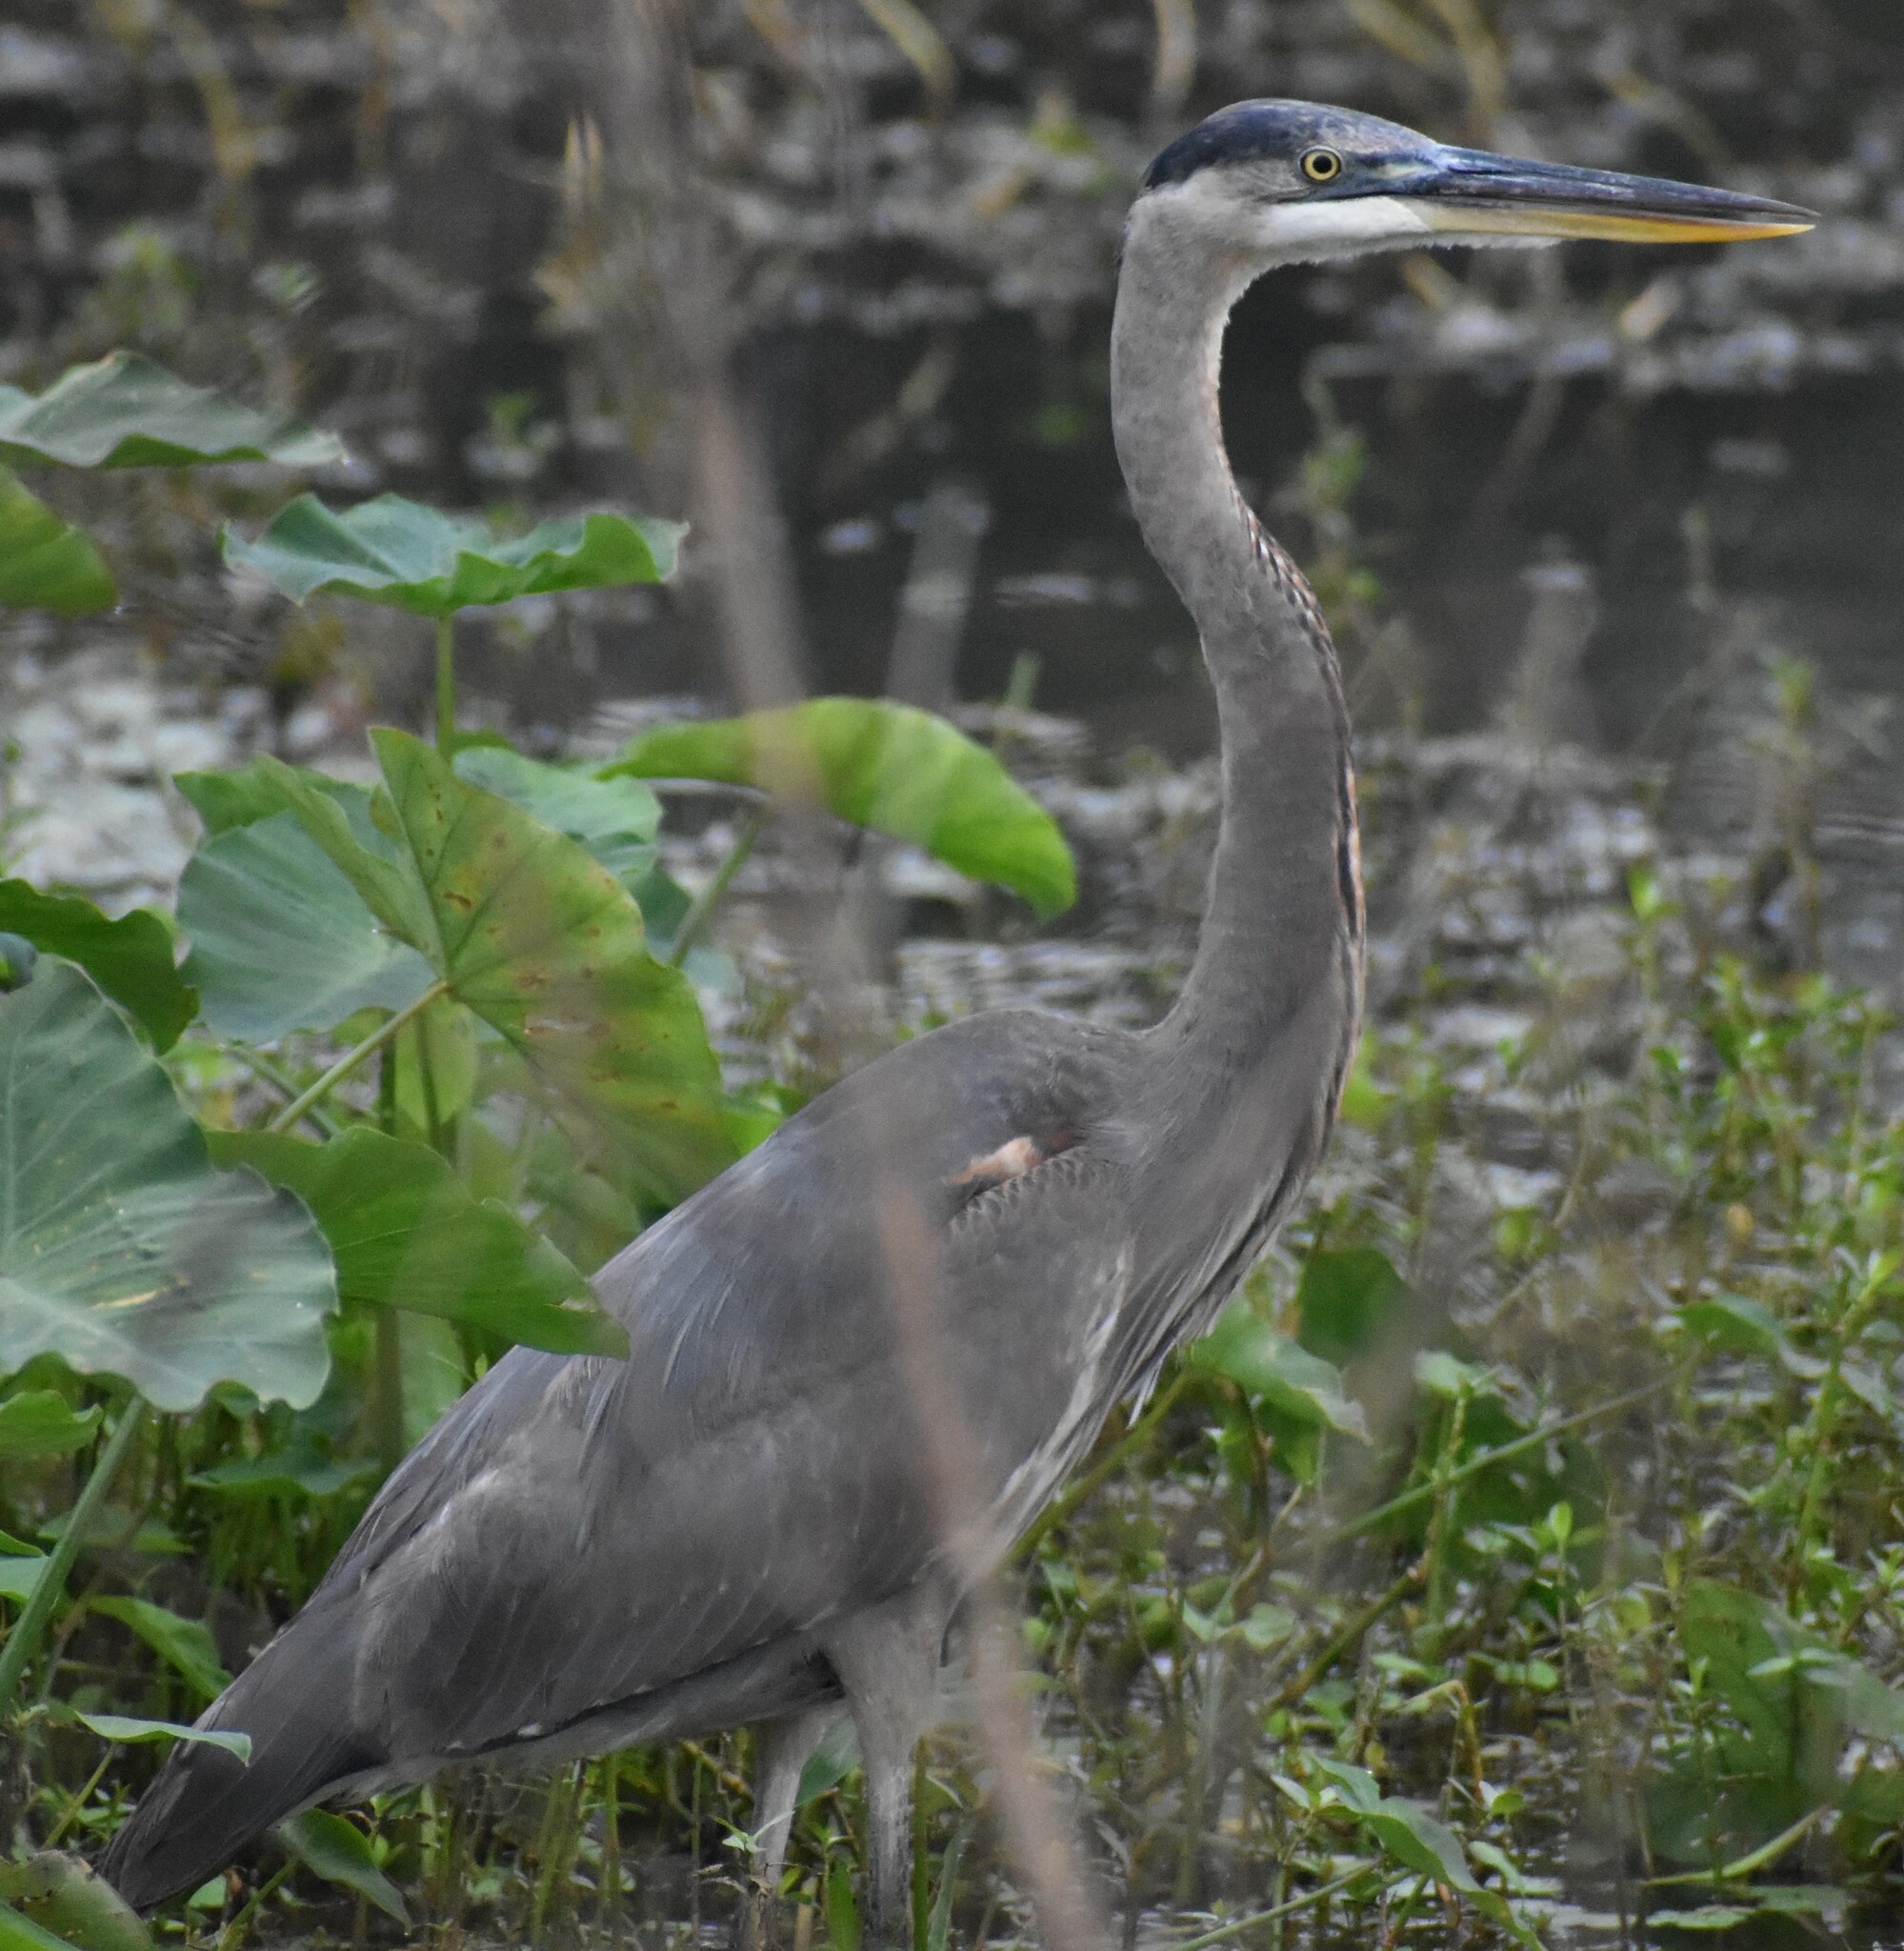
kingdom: Animalia
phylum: Chordata
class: Aves
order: Pelecaniformes
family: Ardeidae
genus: Ardea
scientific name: Ardea herodias
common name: Great blue heron
